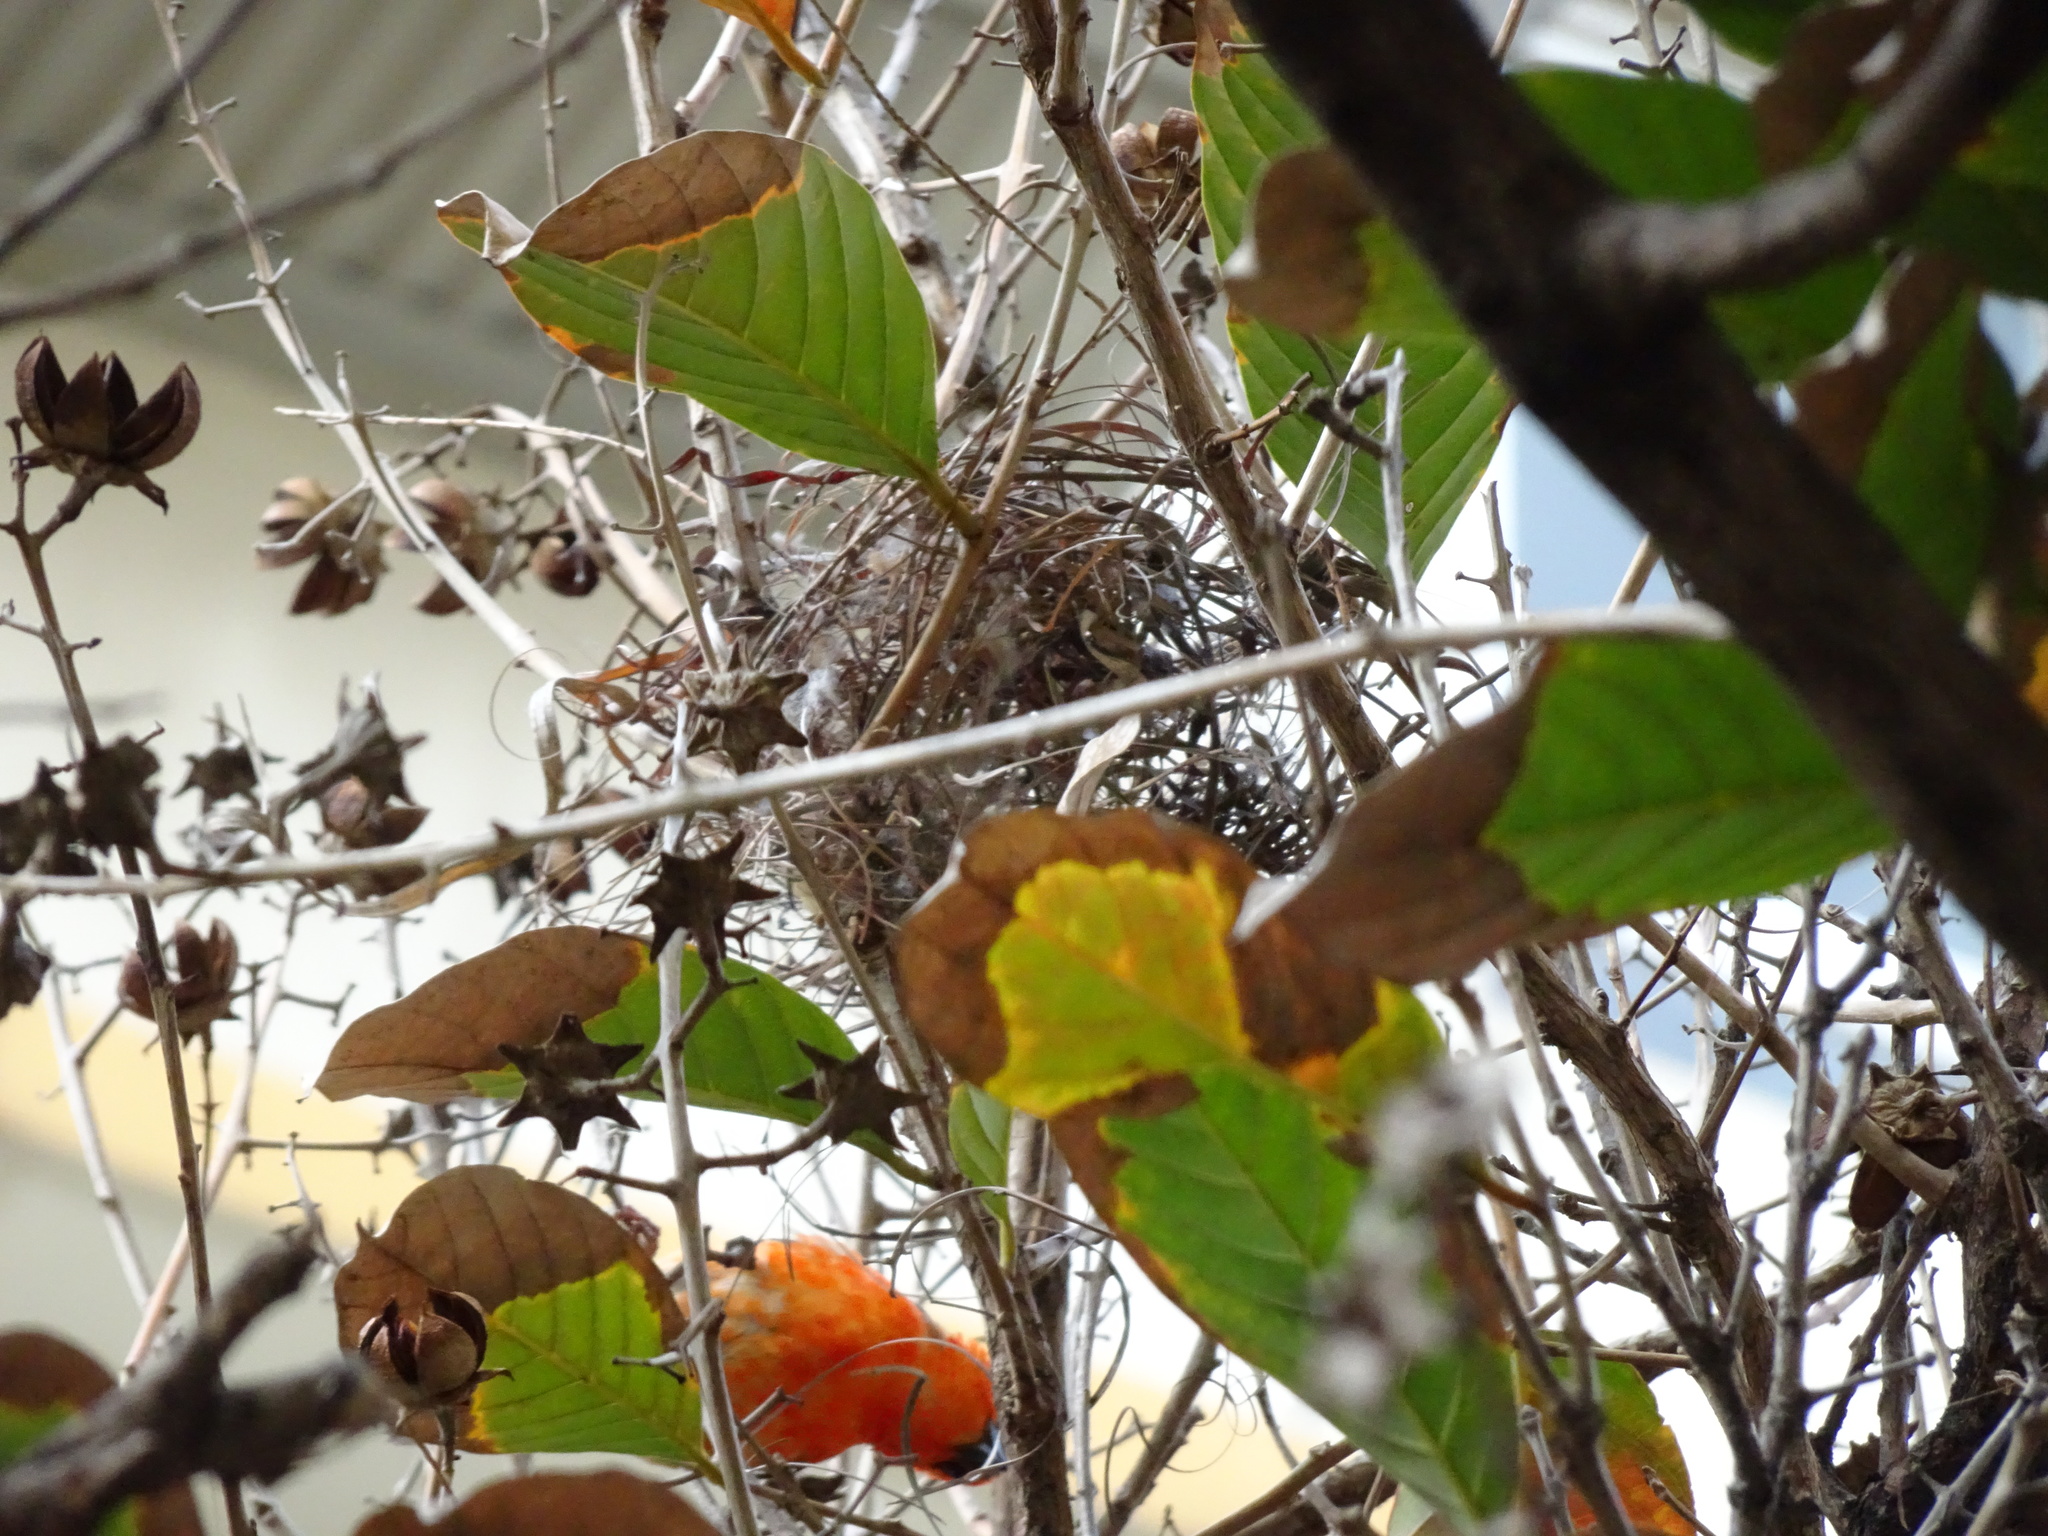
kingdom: Animalia
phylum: Chordata
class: Aves
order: Passeriformes
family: Ploceidae
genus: Foudia
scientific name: Foudia madagascariensis
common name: Red fody
